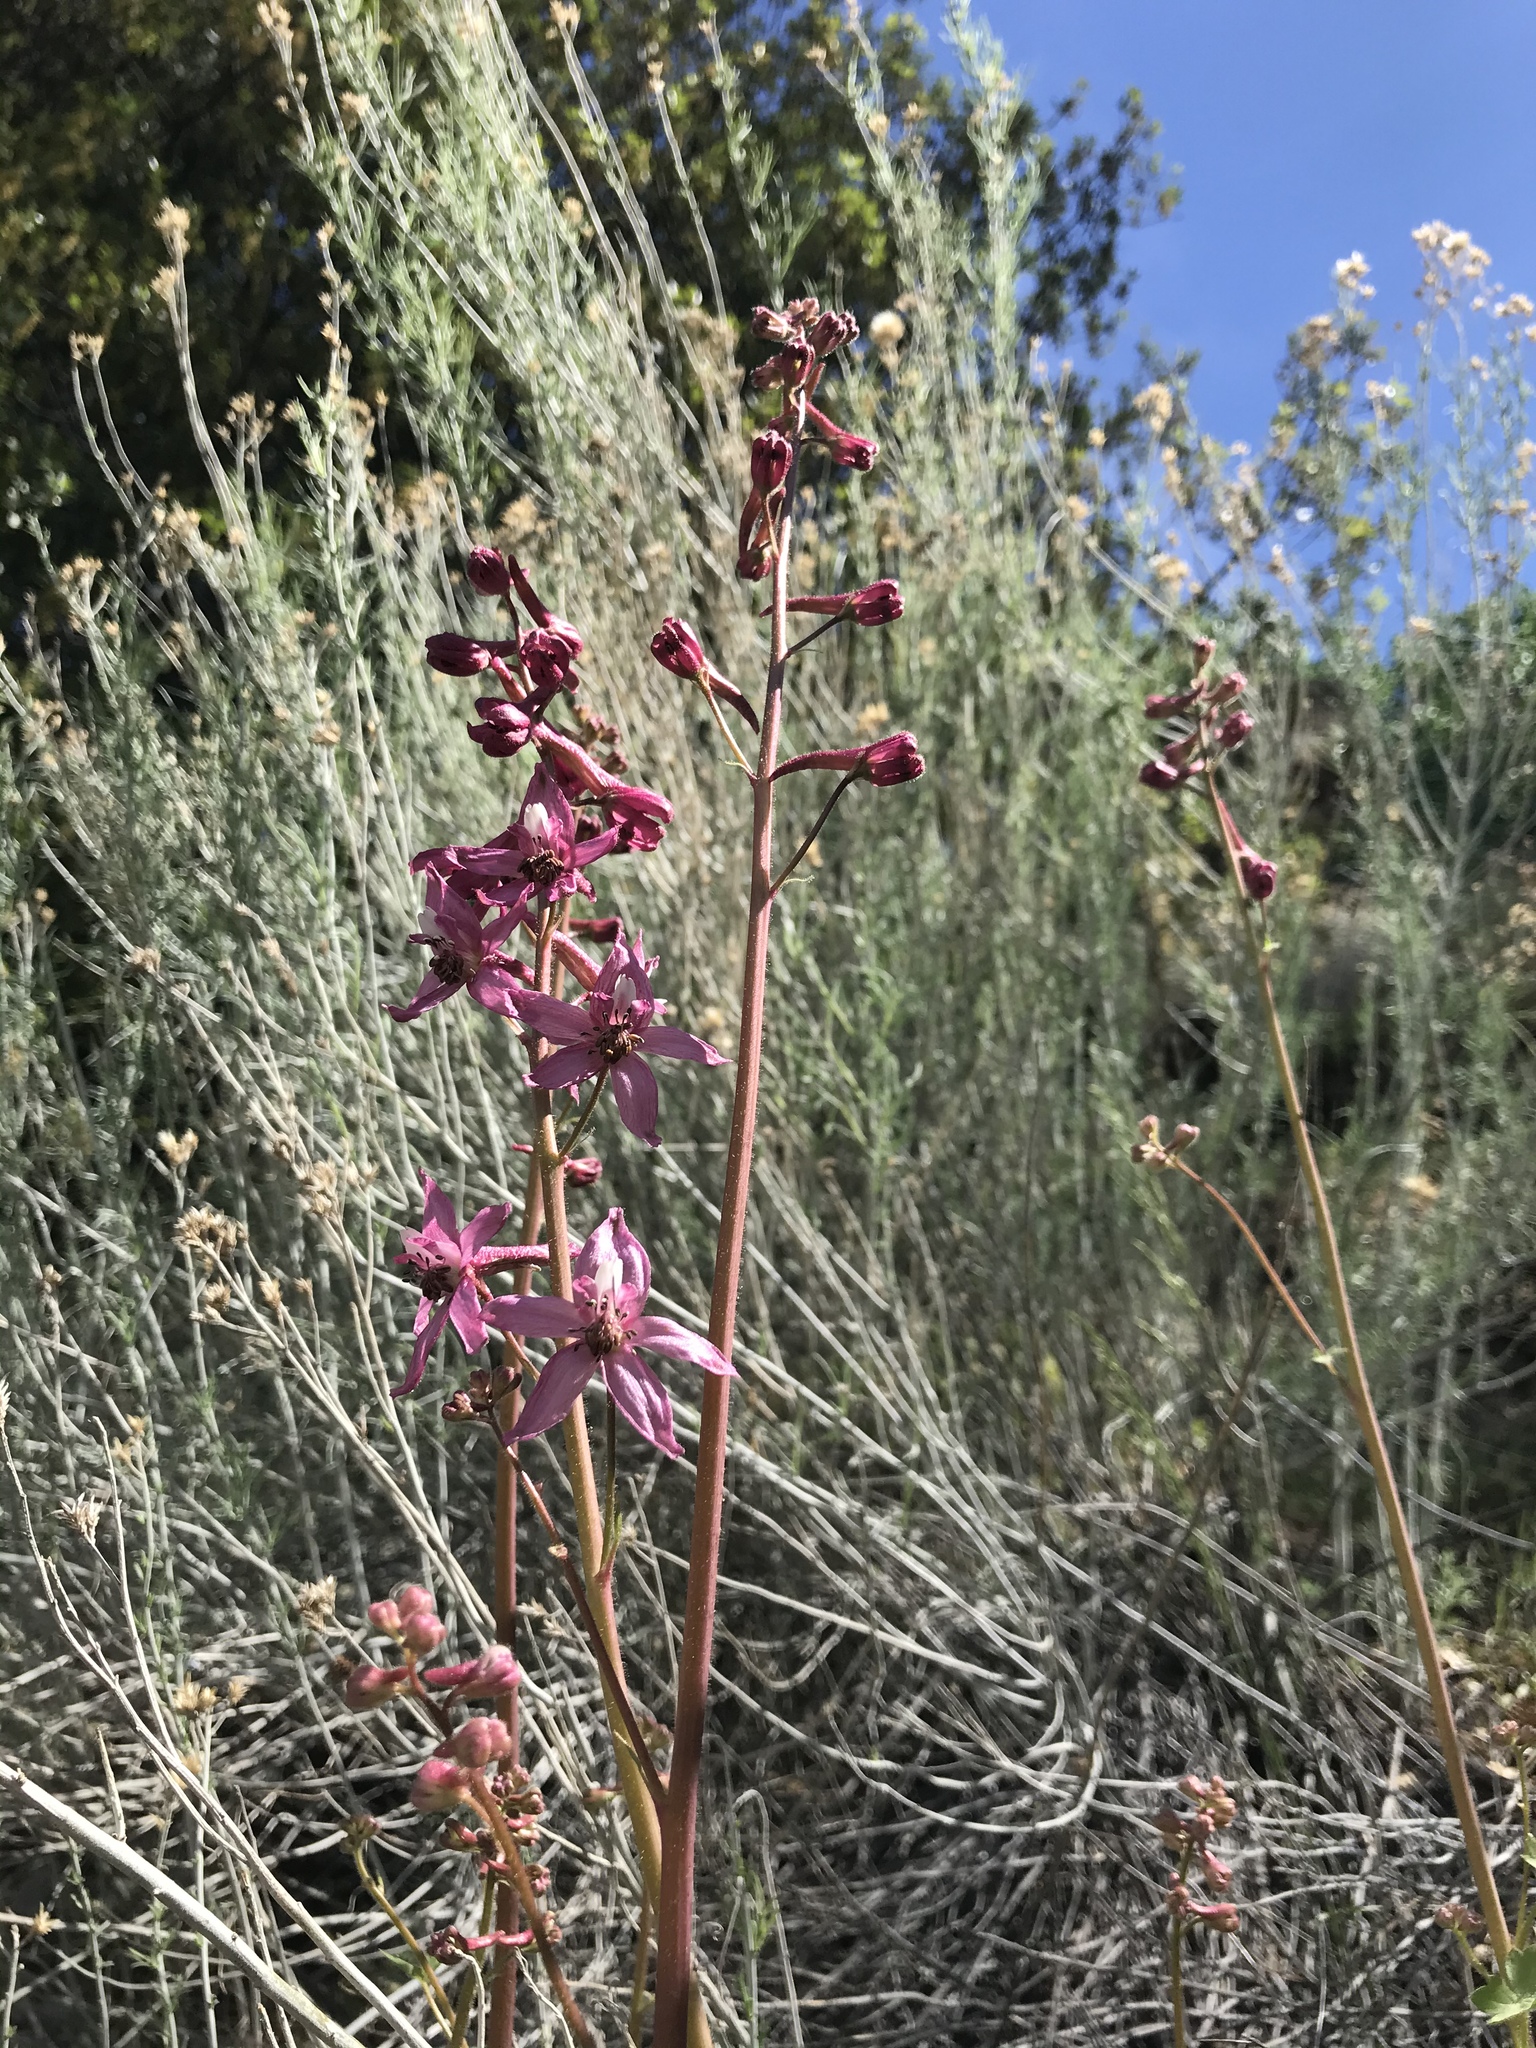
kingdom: Plantae
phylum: Tracheophyta
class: Magnoliopsida
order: Ranunculales
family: Ranunculaceae
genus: Delphinium
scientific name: Delphinium purpusii
